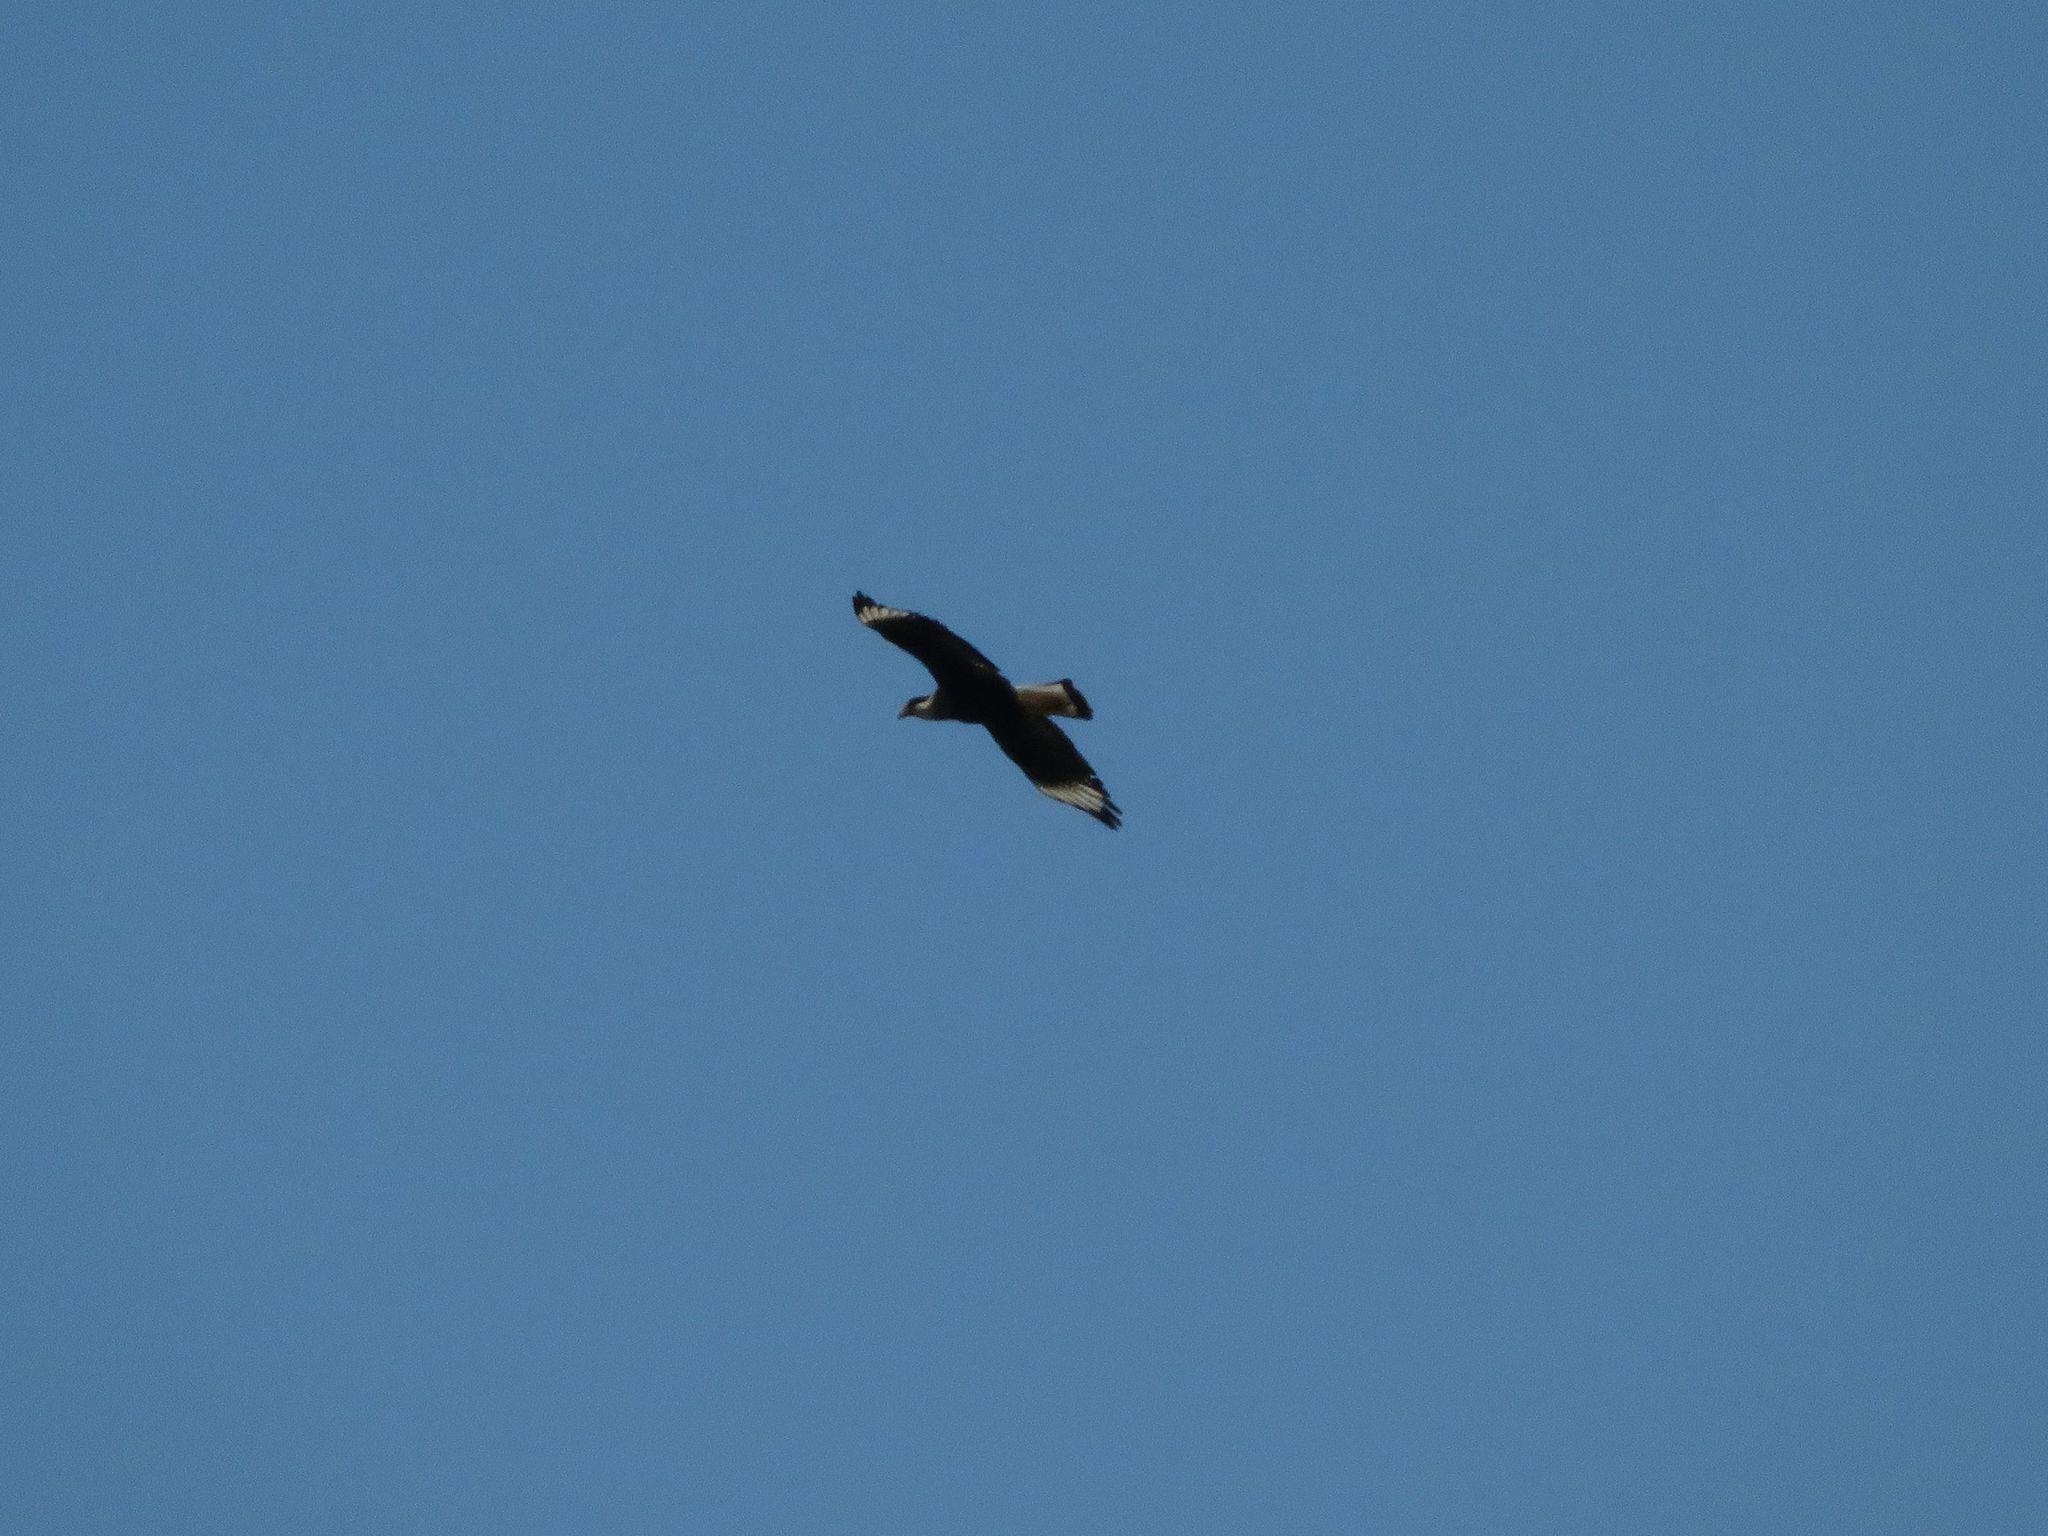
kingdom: Animalia
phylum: Chordata
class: Aves
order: Falconiformes
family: Falconidae
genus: Caracara
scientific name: Caracara plancus
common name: Southern caracara
